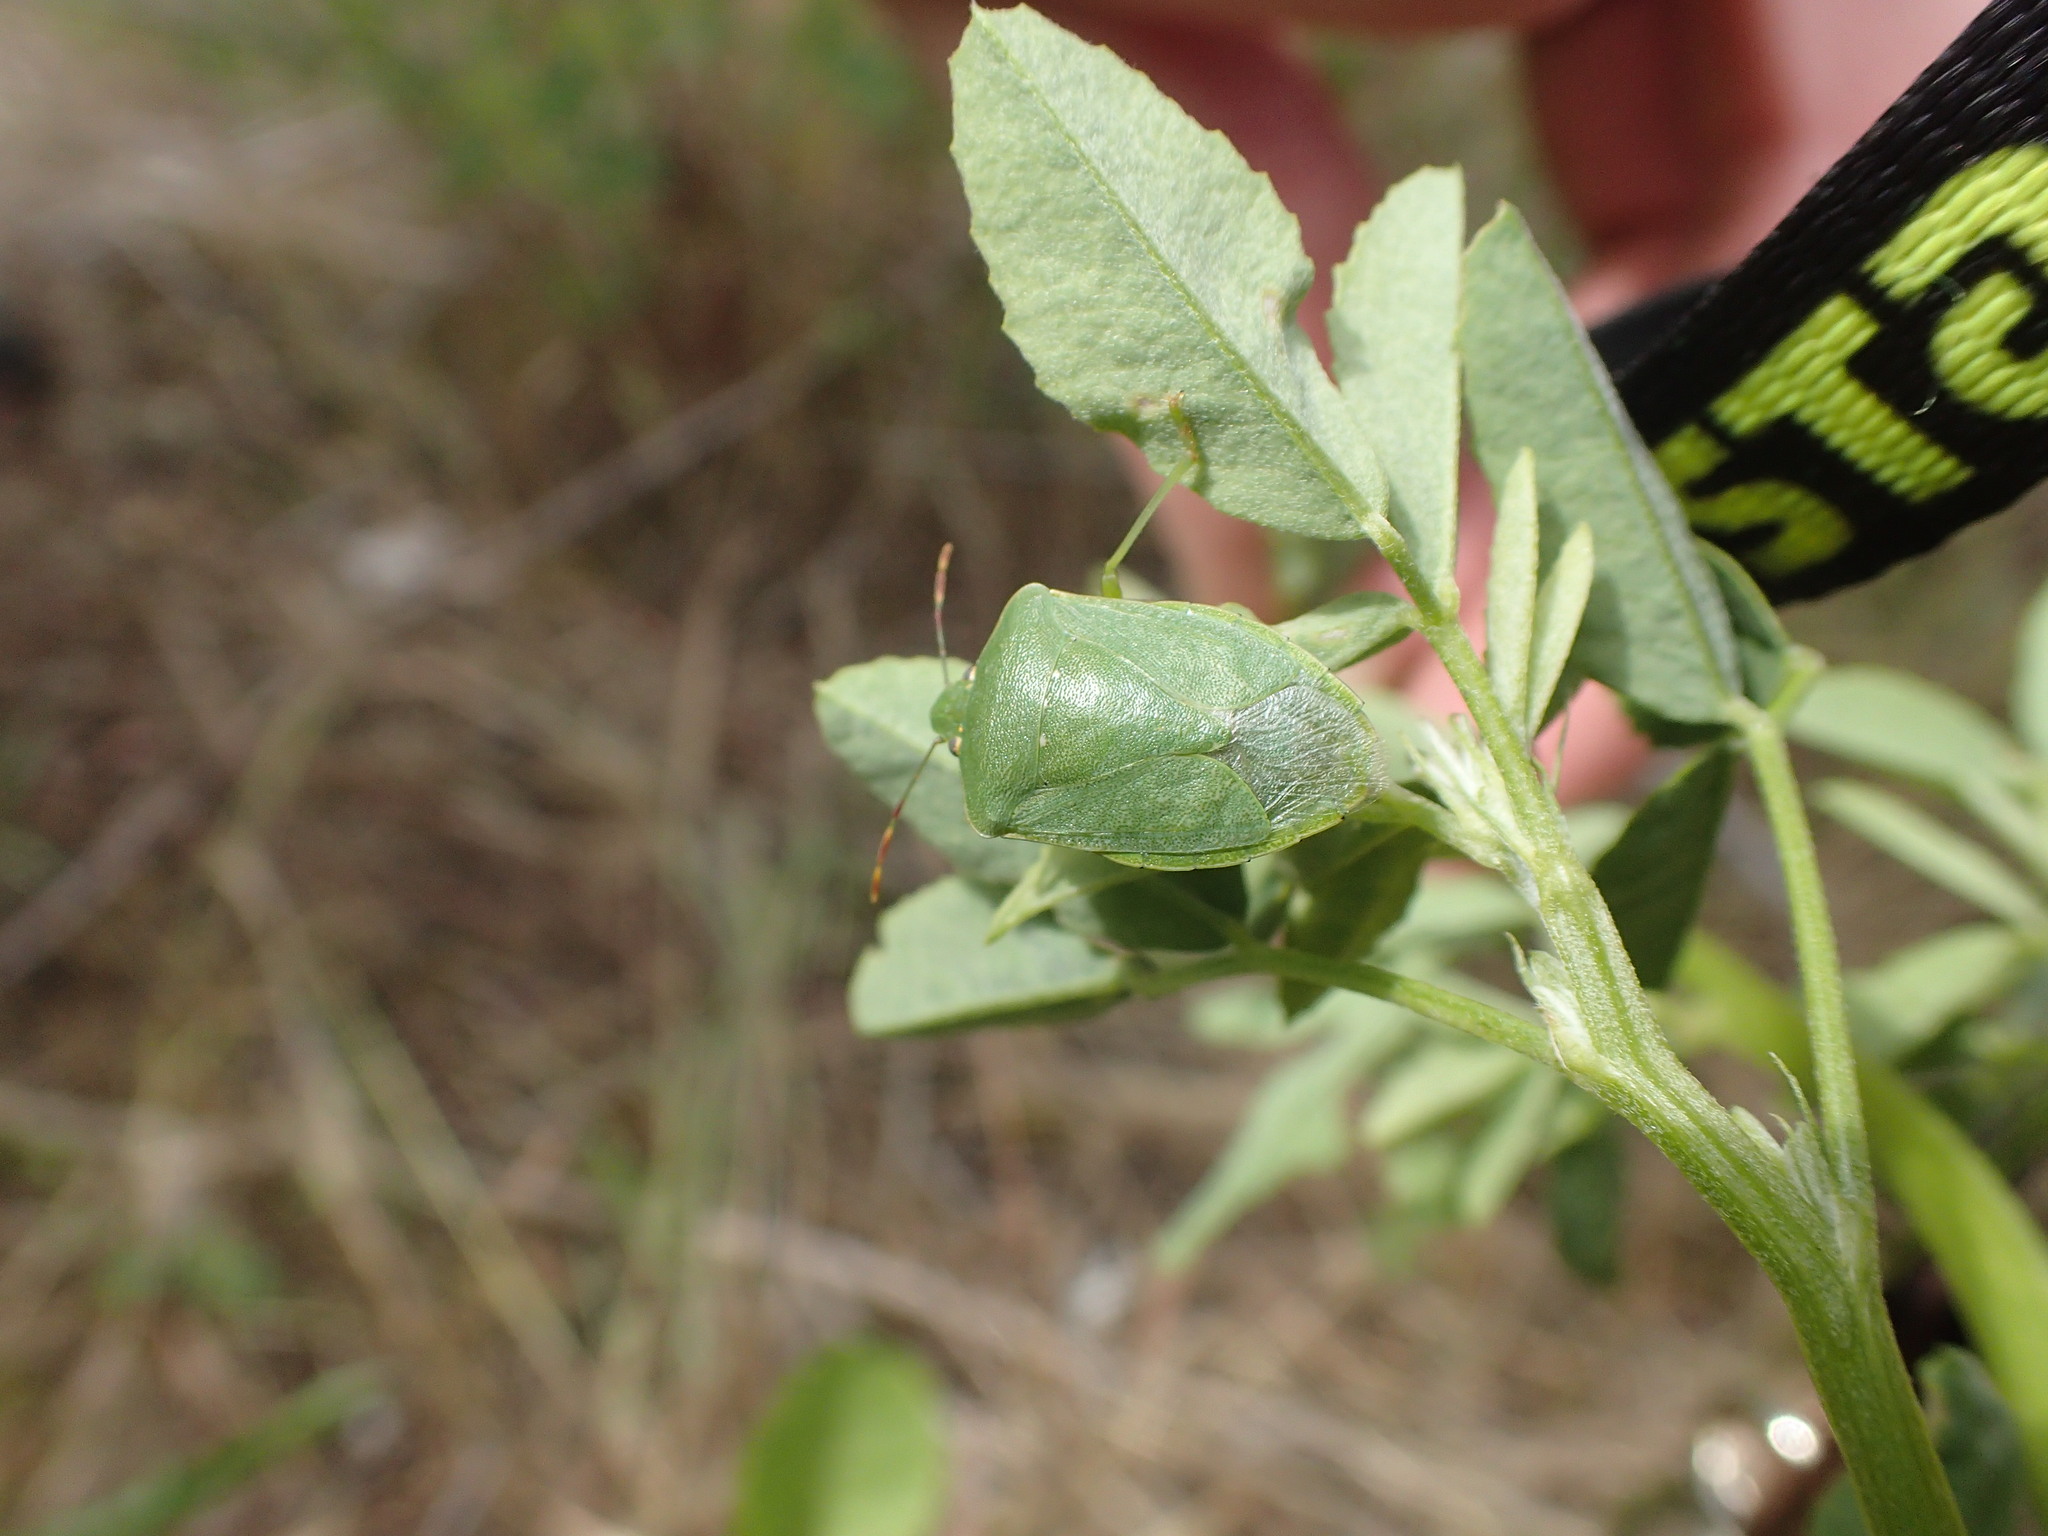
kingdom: Animalia
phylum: Arthropoda
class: Insecta
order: Hemiptera
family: Pentatomidae
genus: Nezara
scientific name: Nezara viridula
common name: Southern green stink bug
